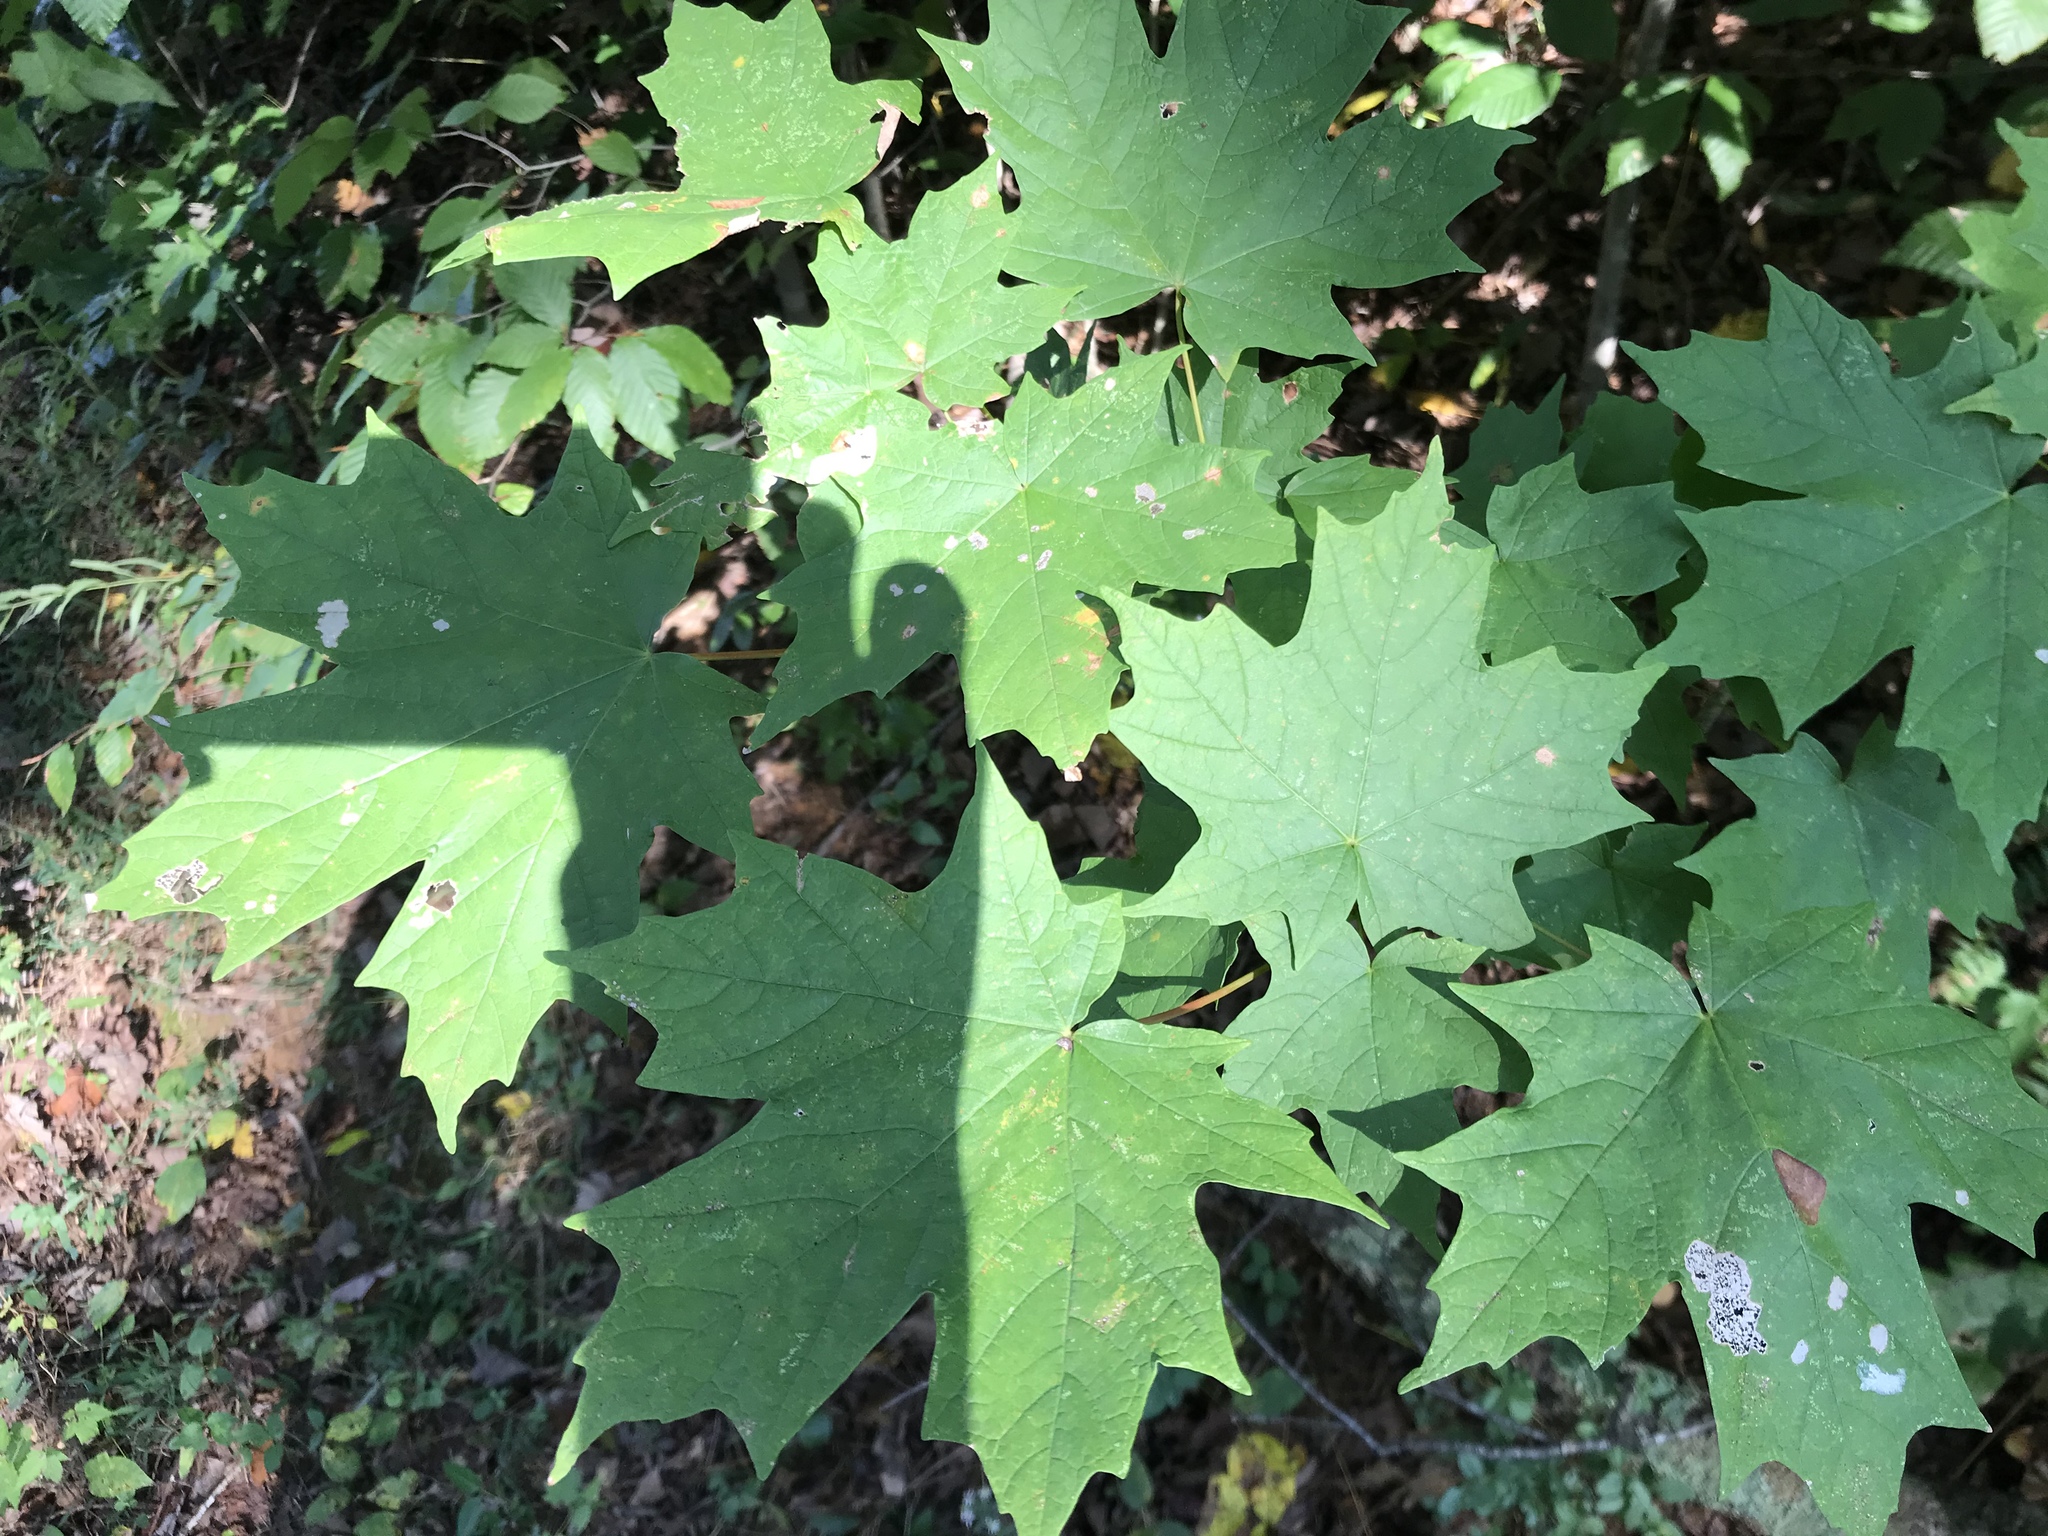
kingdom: Plantae
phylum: Tracheophyta
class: Magnoliopsida
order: Sapindales
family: Sapindaceae
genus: Acer
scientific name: Acer saccharum
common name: Sugar maple
